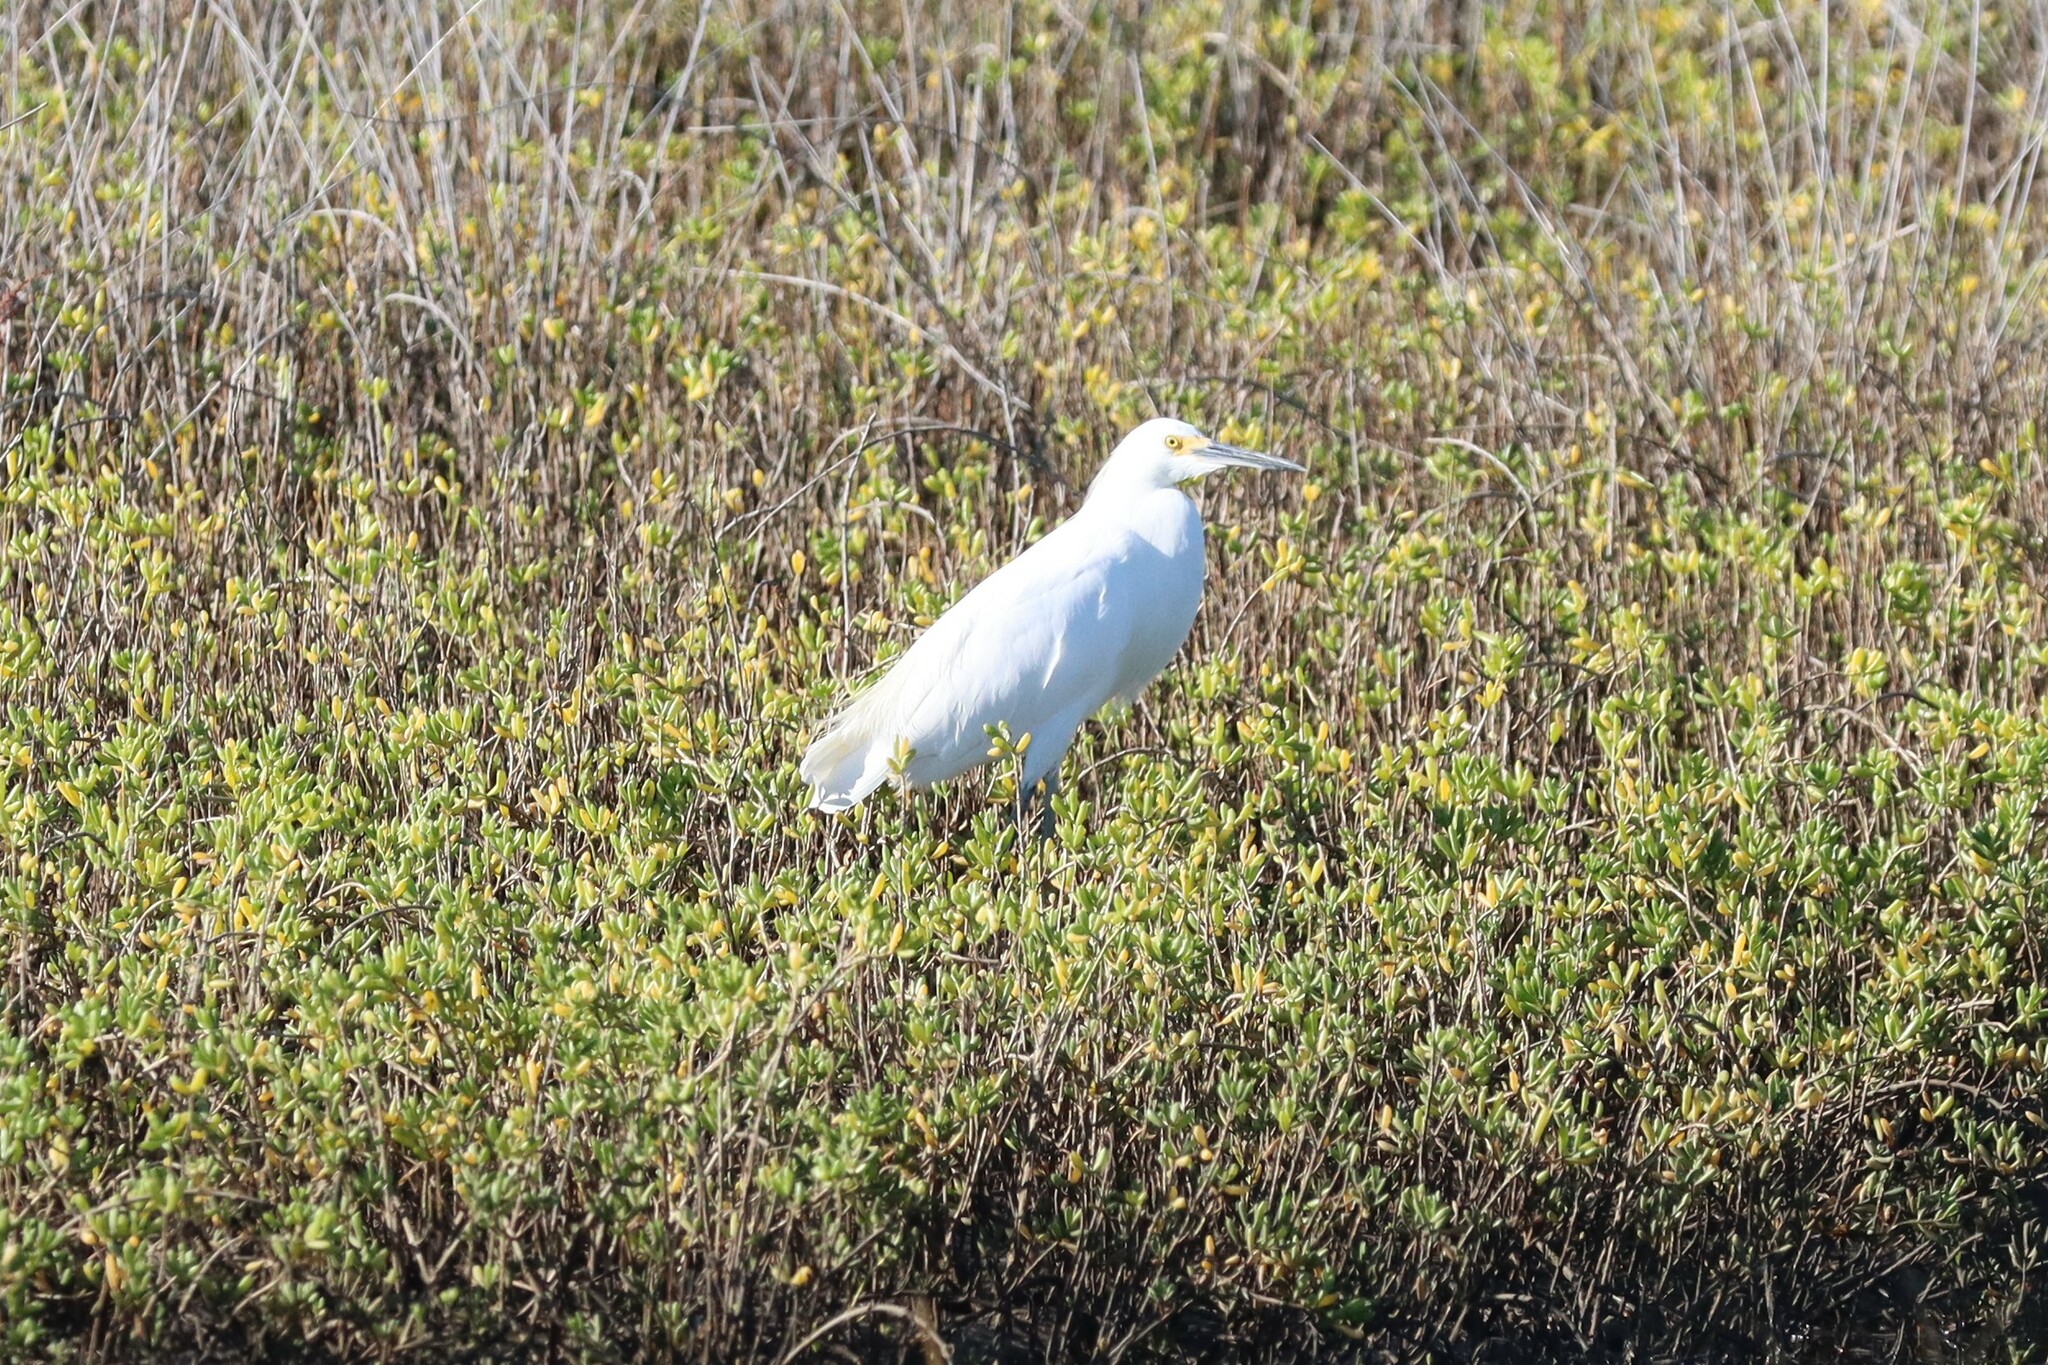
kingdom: Animalia
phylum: Chordata
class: Aves
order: Pelecaniformes
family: Ardeidae
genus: Egretta
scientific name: Egretta thula
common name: Snowy egret
